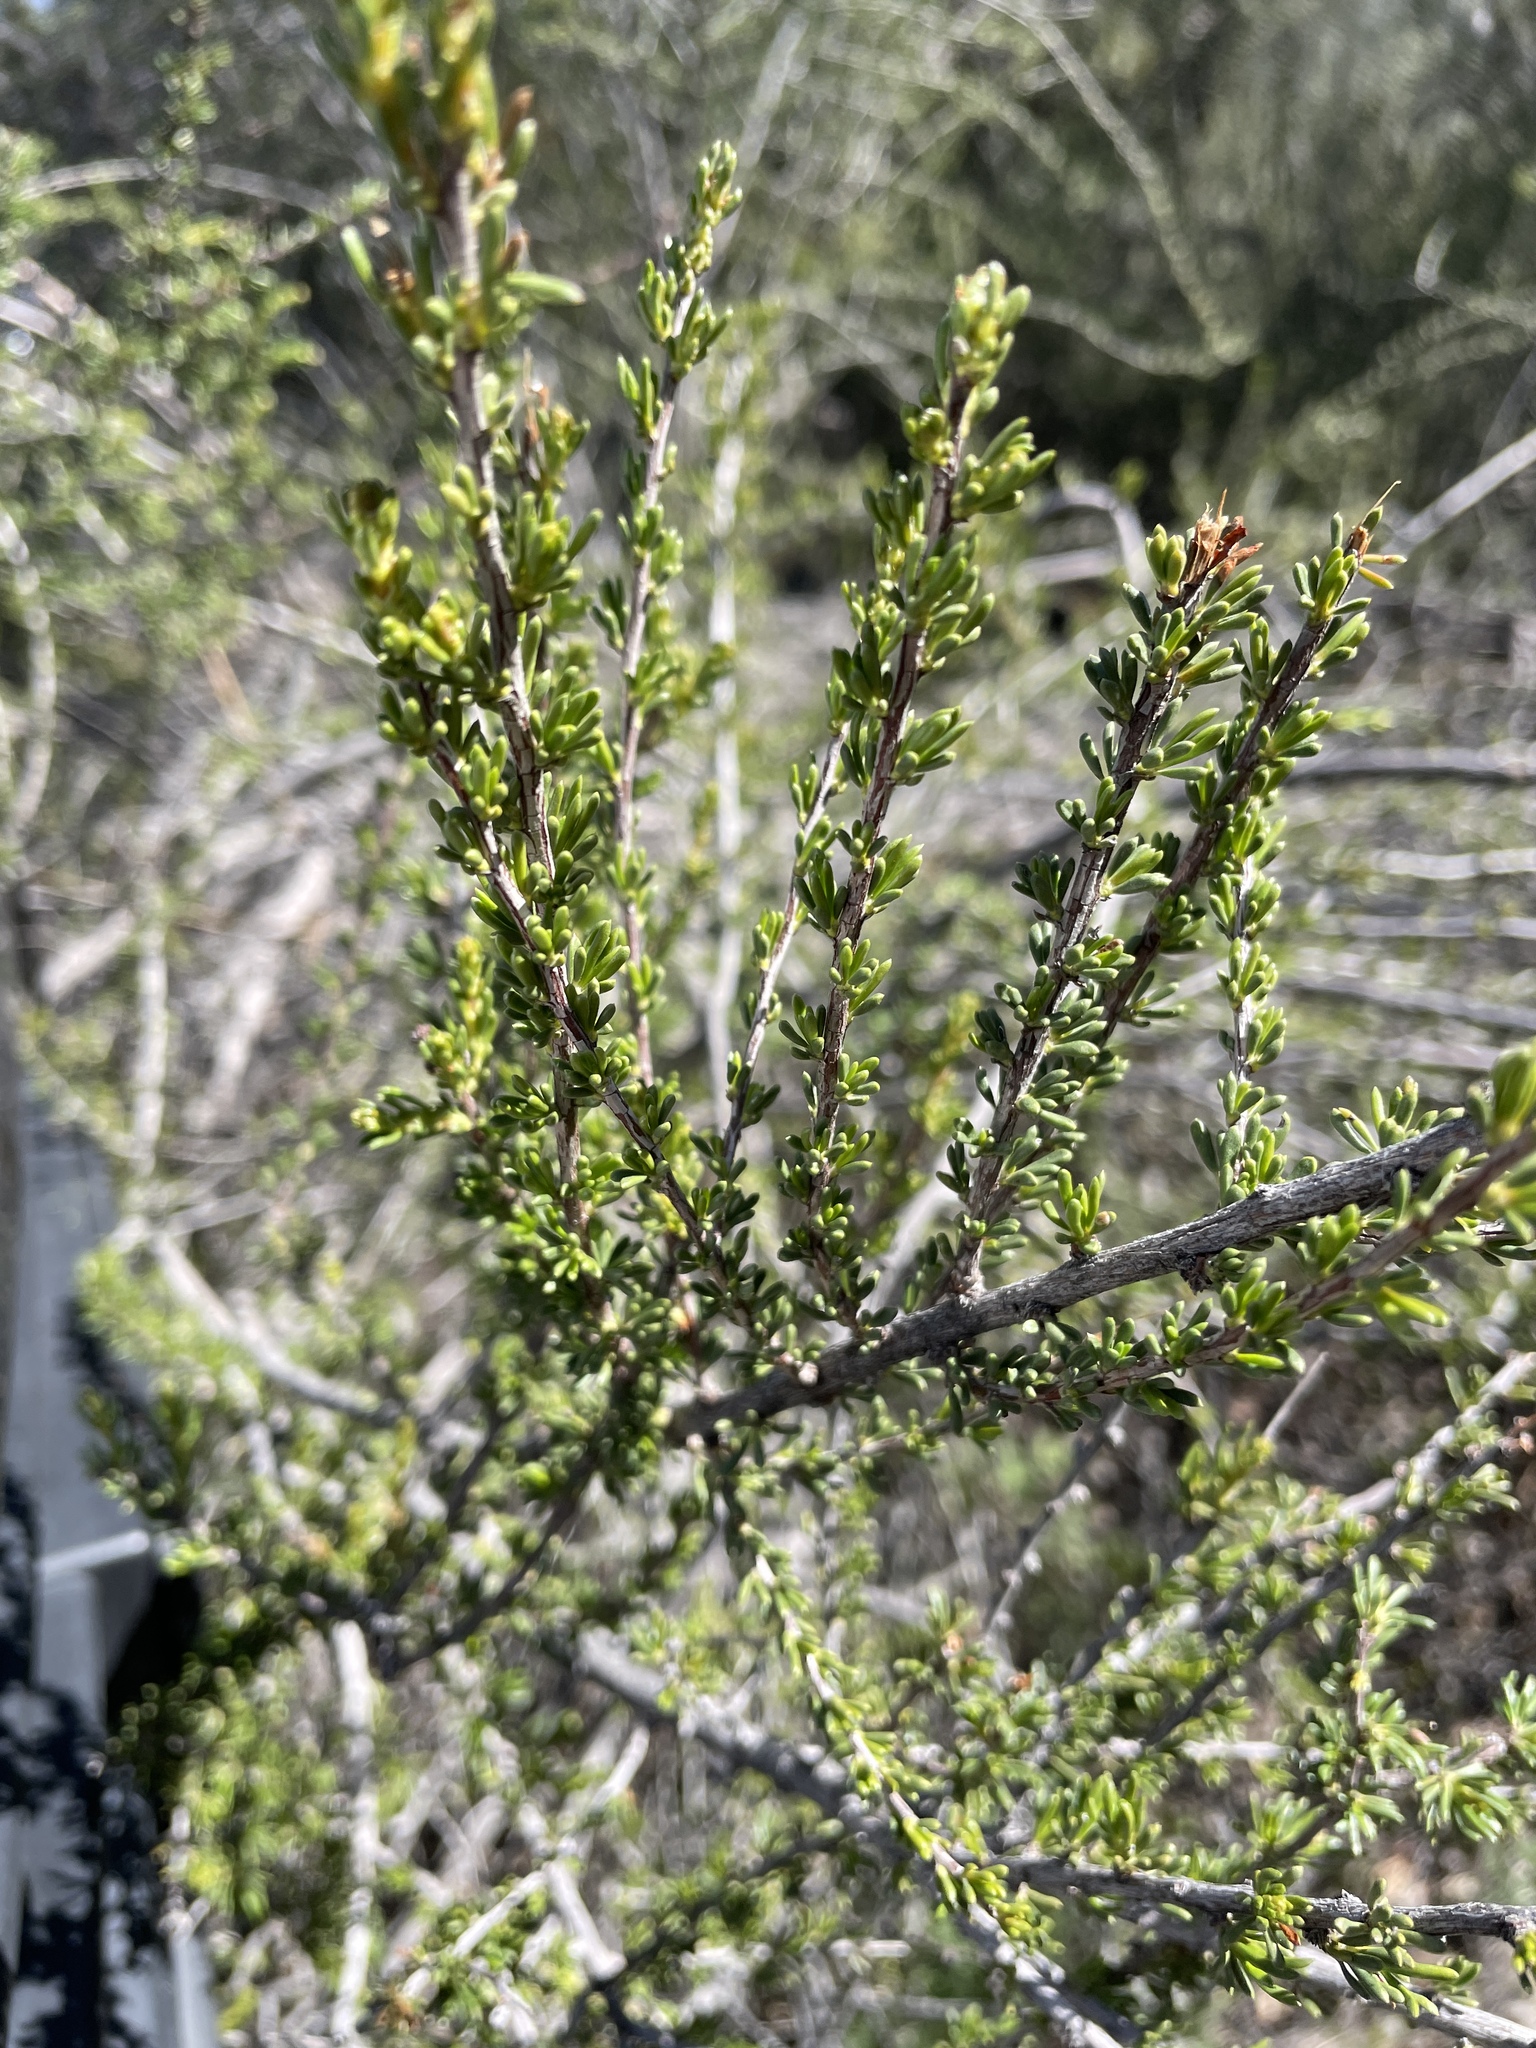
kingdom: Plantae
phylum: Tracheophyta
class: Magnoliopsida
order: Rosales
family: Rosaceae
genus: Adenostoma
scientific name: Adenostoma fasciculatum
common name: Chamise
